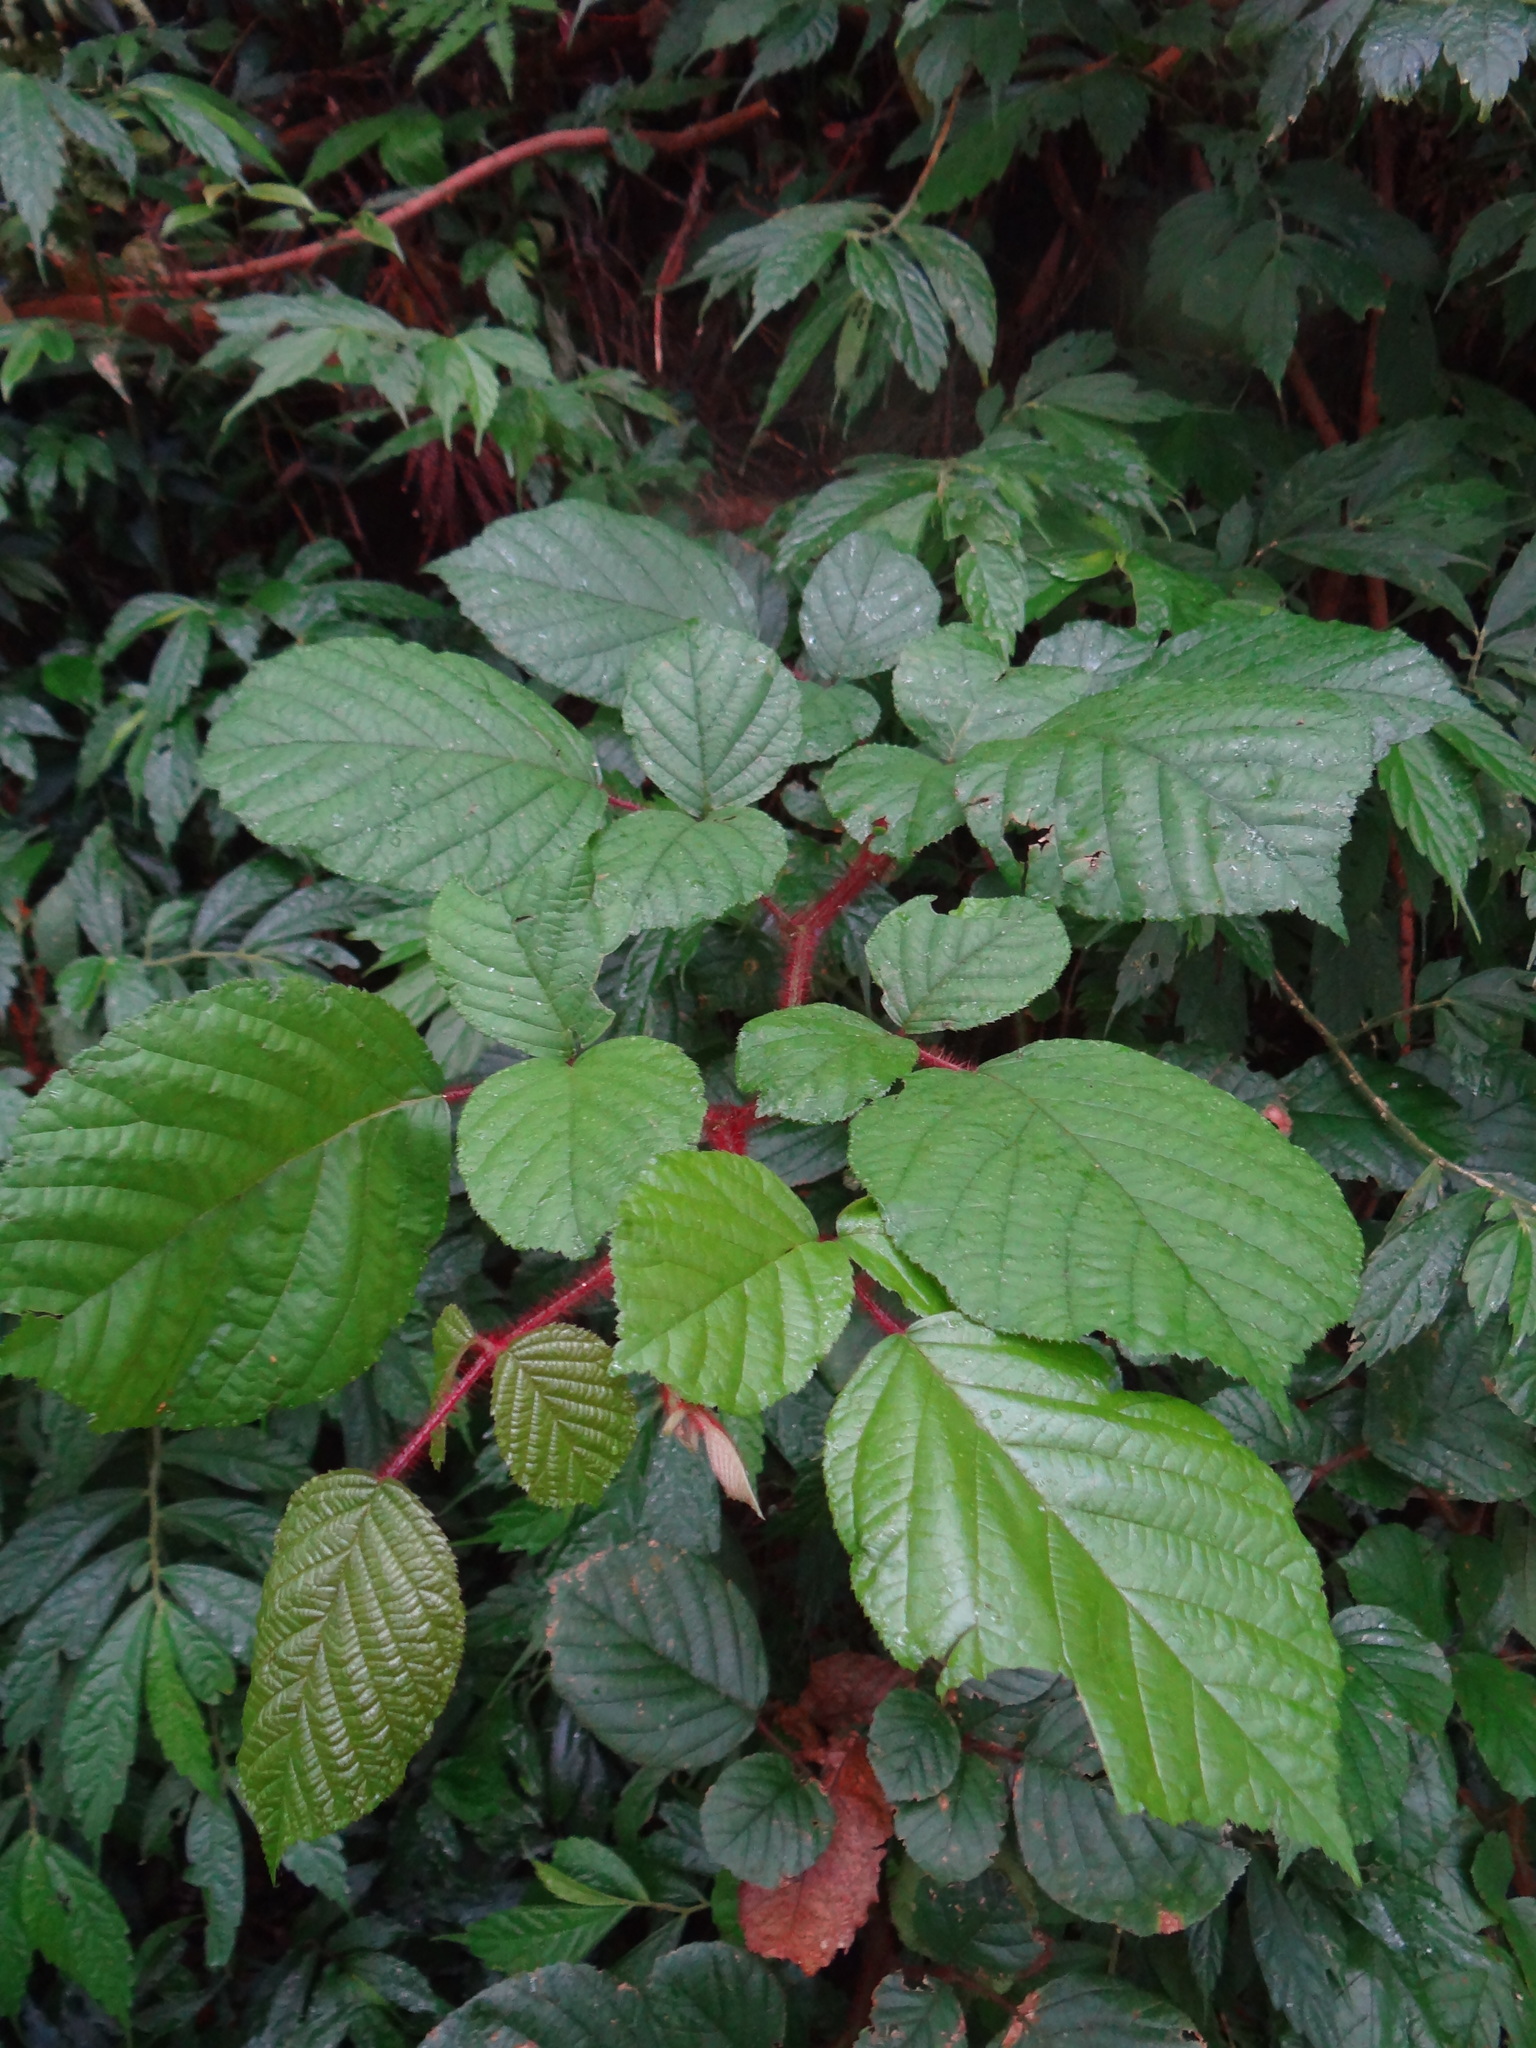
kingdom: Plantae
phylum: Tracheophyta
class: Magnoliopsida
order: Rosales
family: Rosaceae
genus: Rubus
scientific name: Rubus ellipticus
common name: Cheeseberry
